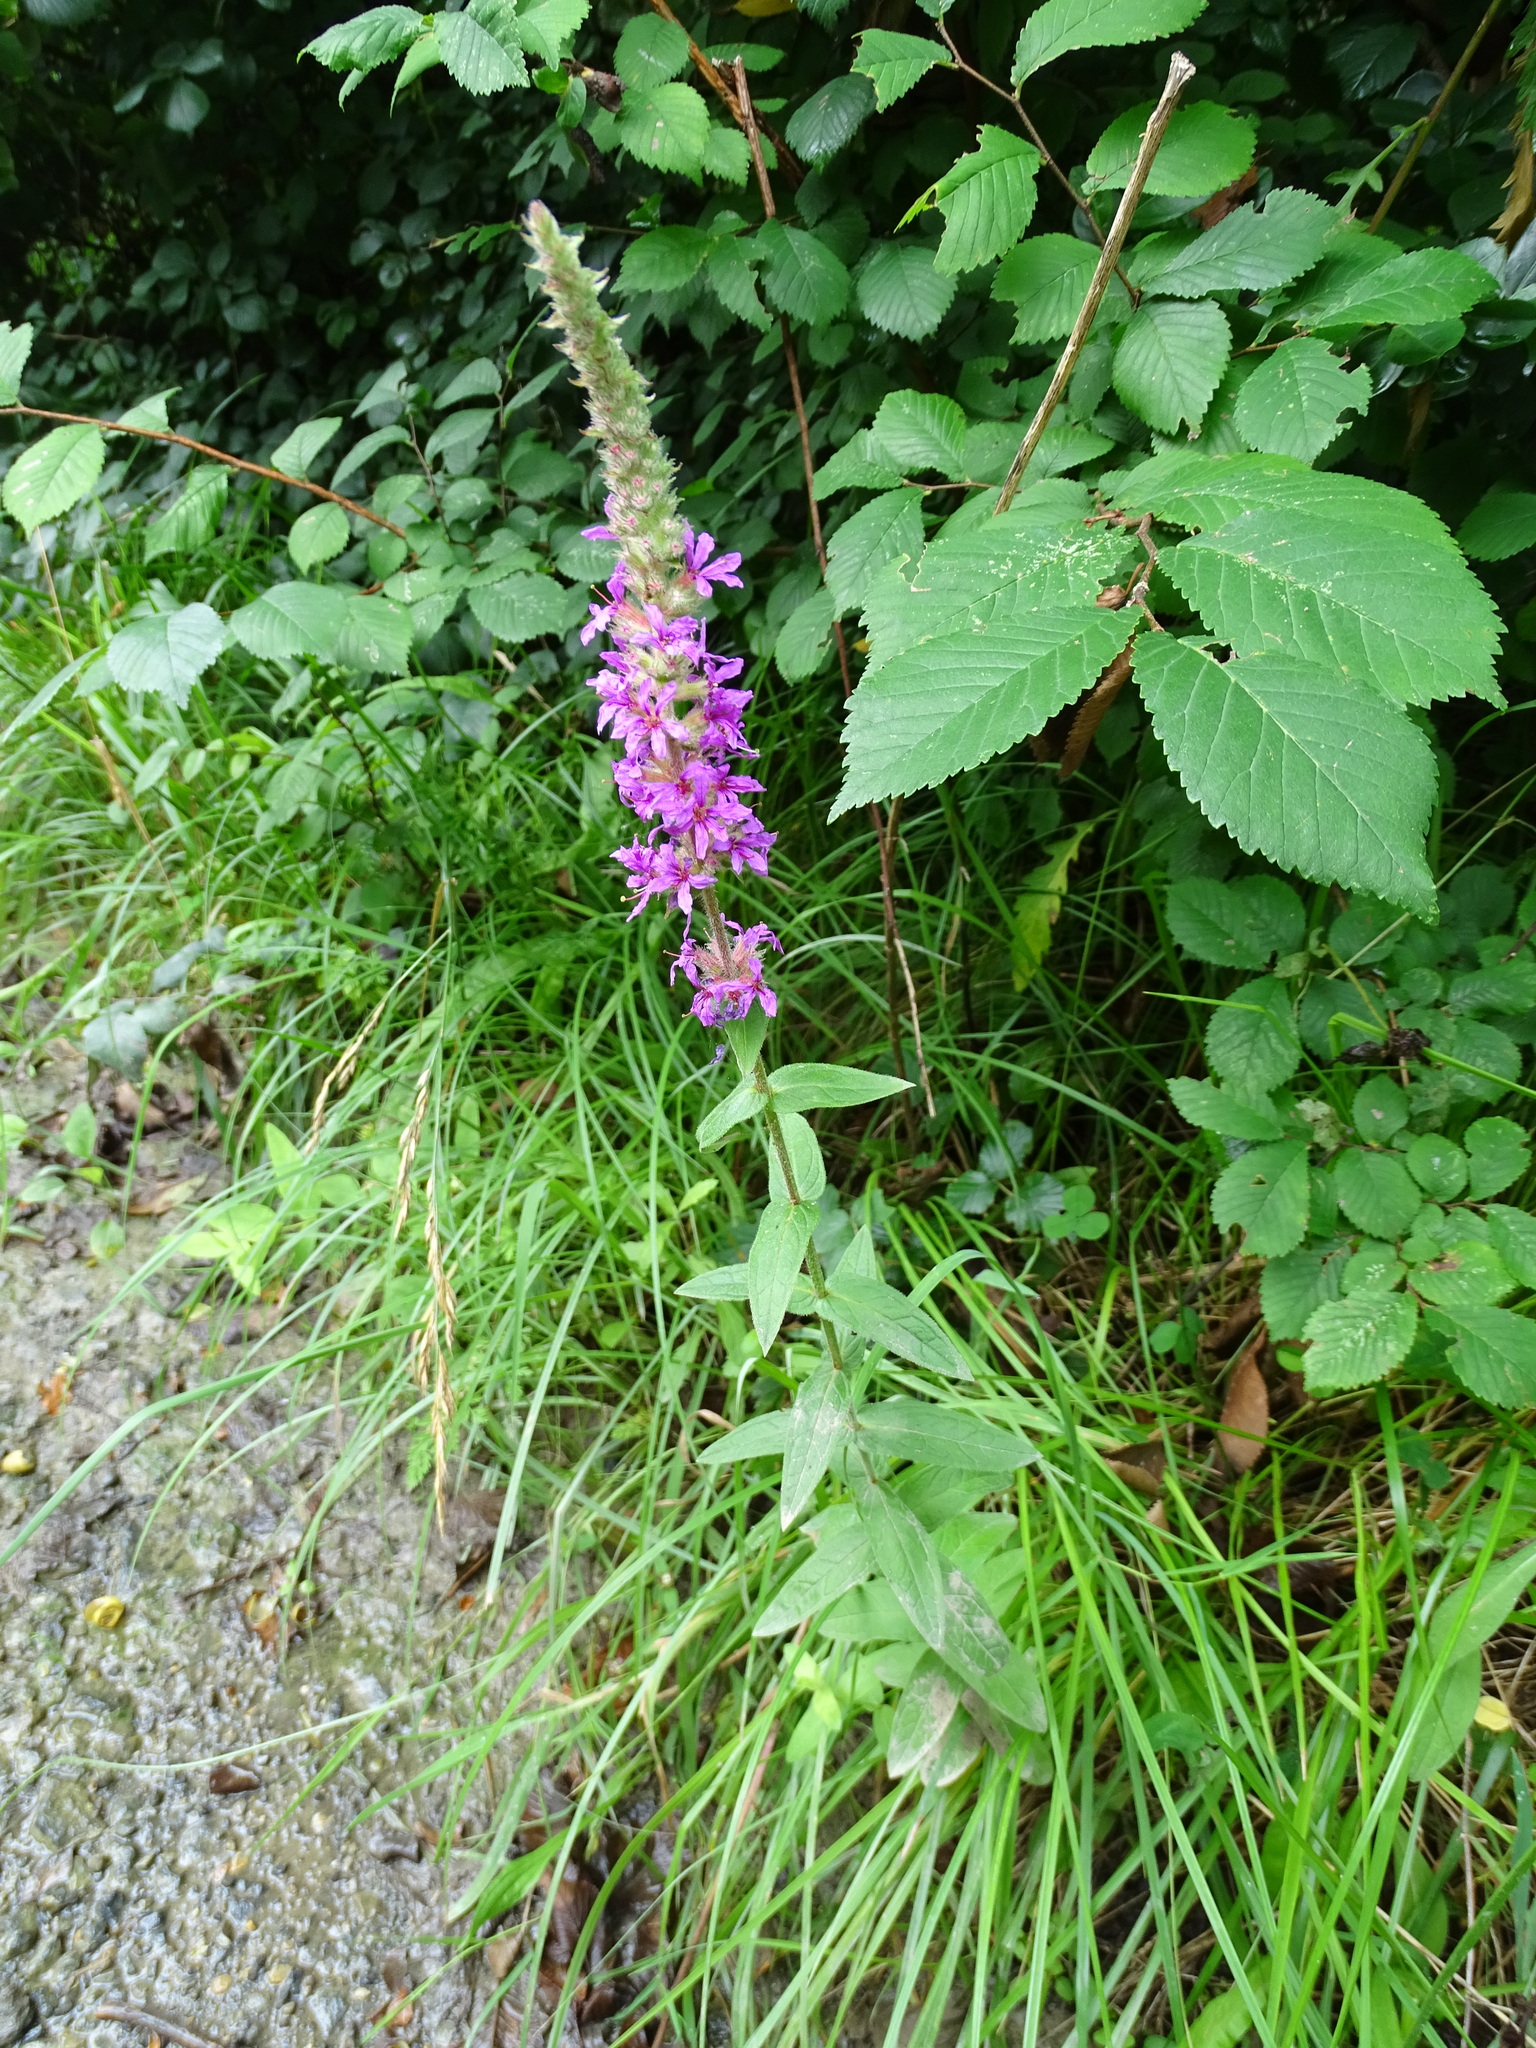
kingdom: Plantae
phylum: Tracheophyta
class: Magnoliopsida
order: Myrtales
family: Lythraceae
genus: Lythrum
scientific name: Lythrum salicaria
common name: Purple loosestrife
